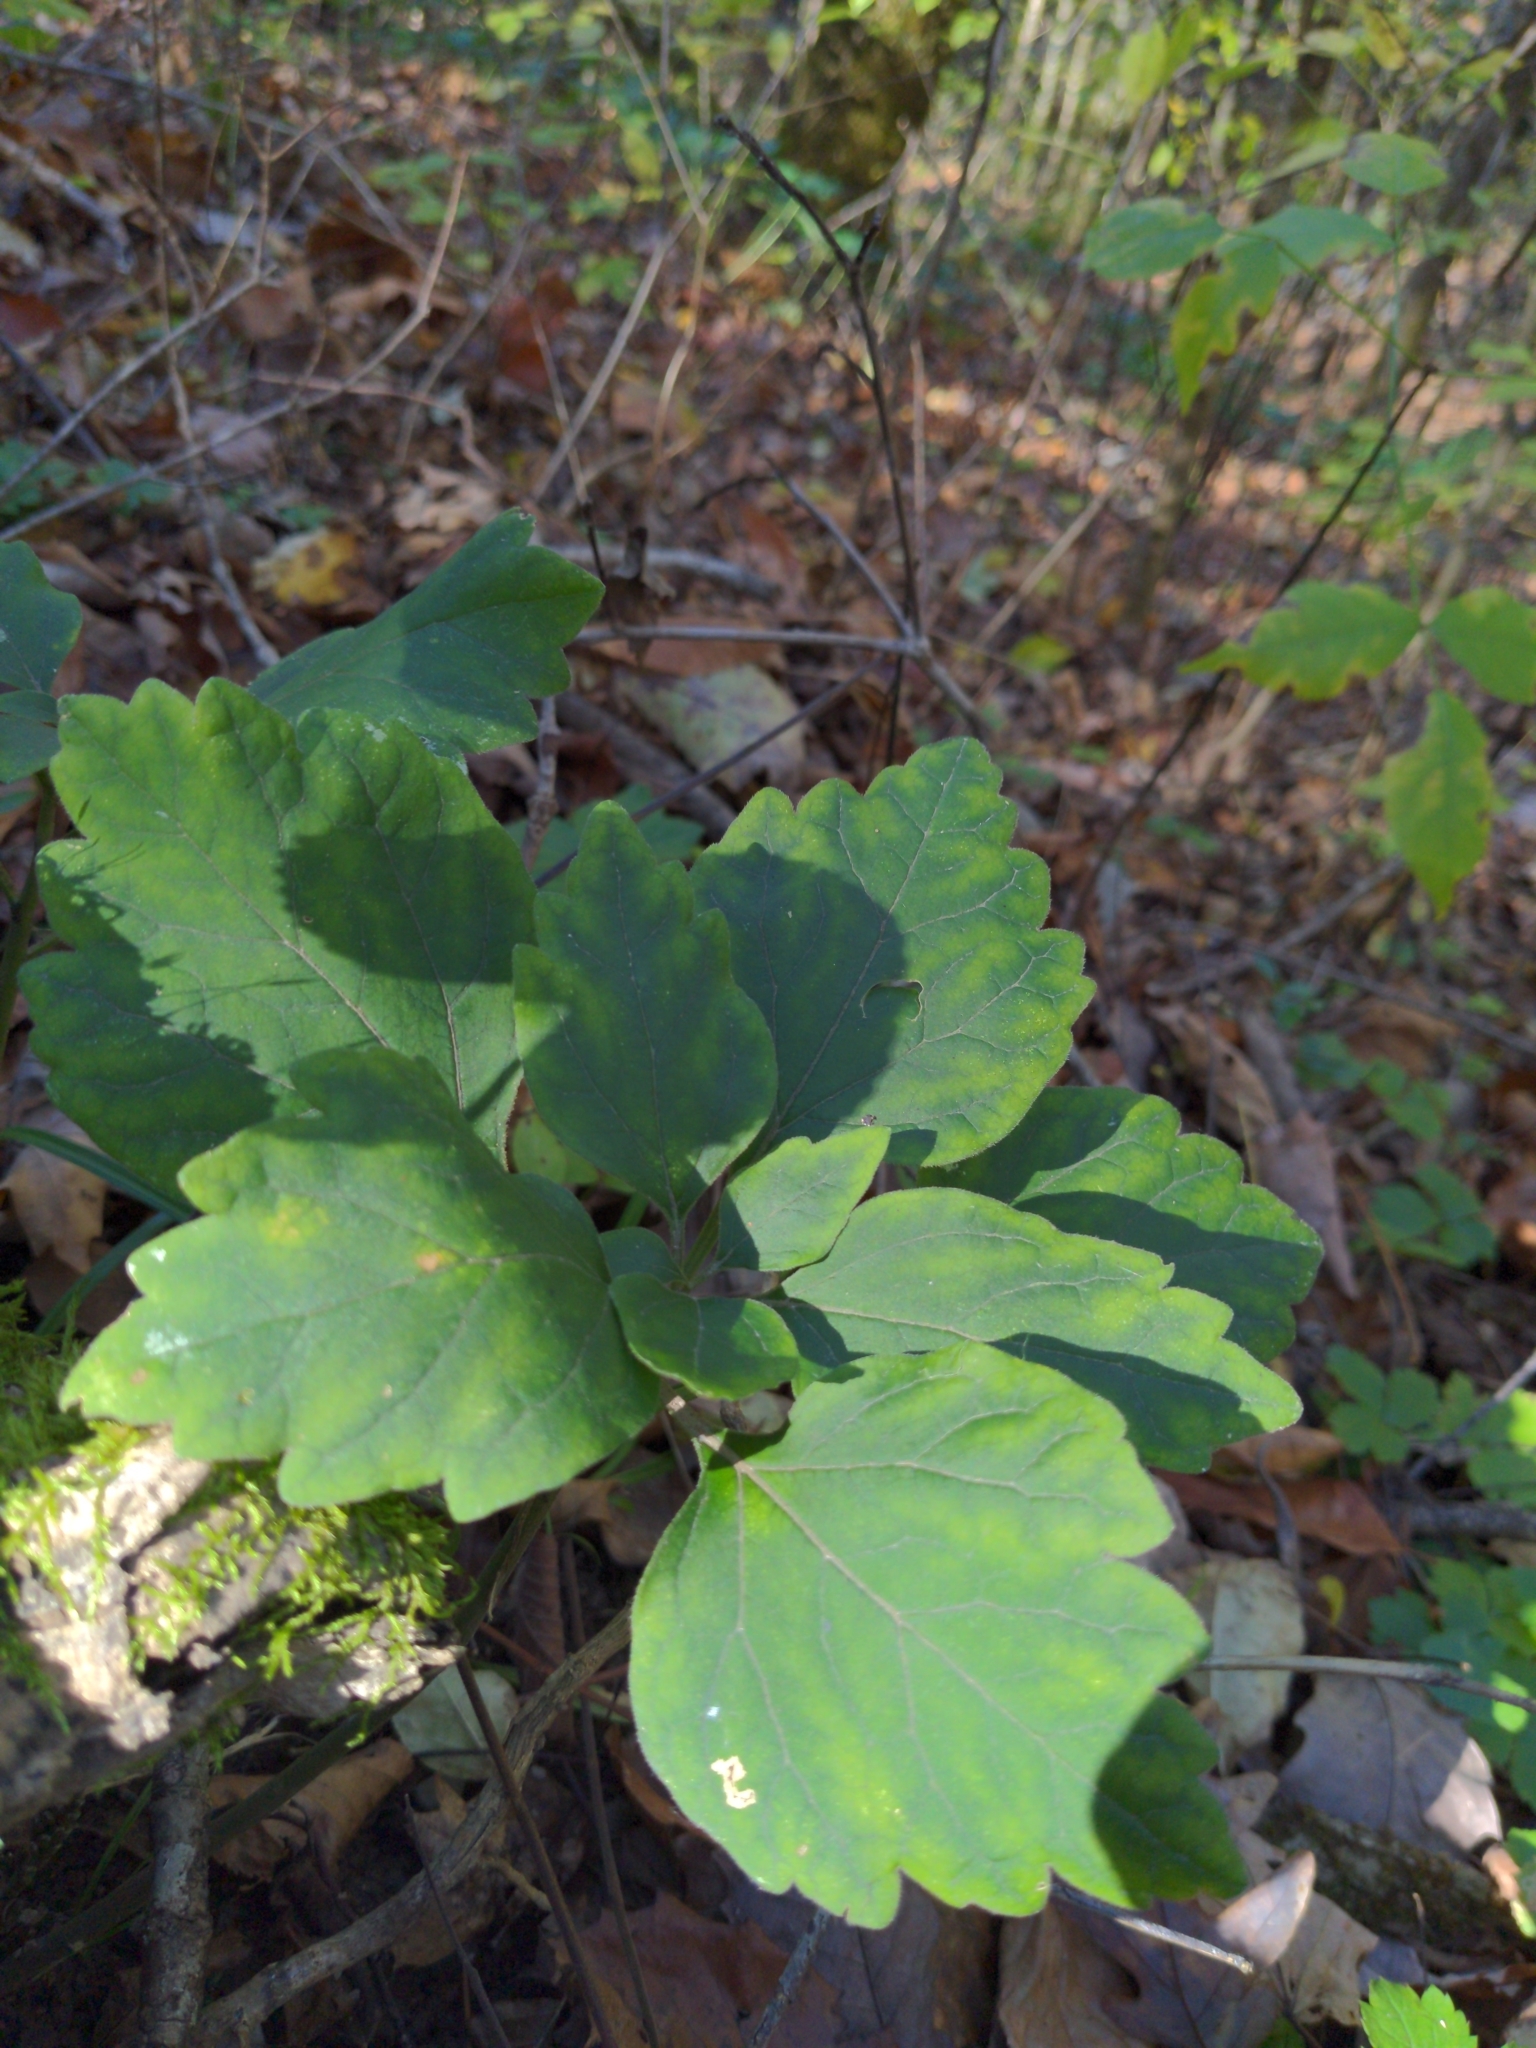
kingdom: Plantae
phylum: Tracheophyta
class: Magnoliopsida
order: Buxales
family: Buxaceae
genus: Pachysandra
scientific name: Pachysandra procumbens
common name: Mountain-spurge
